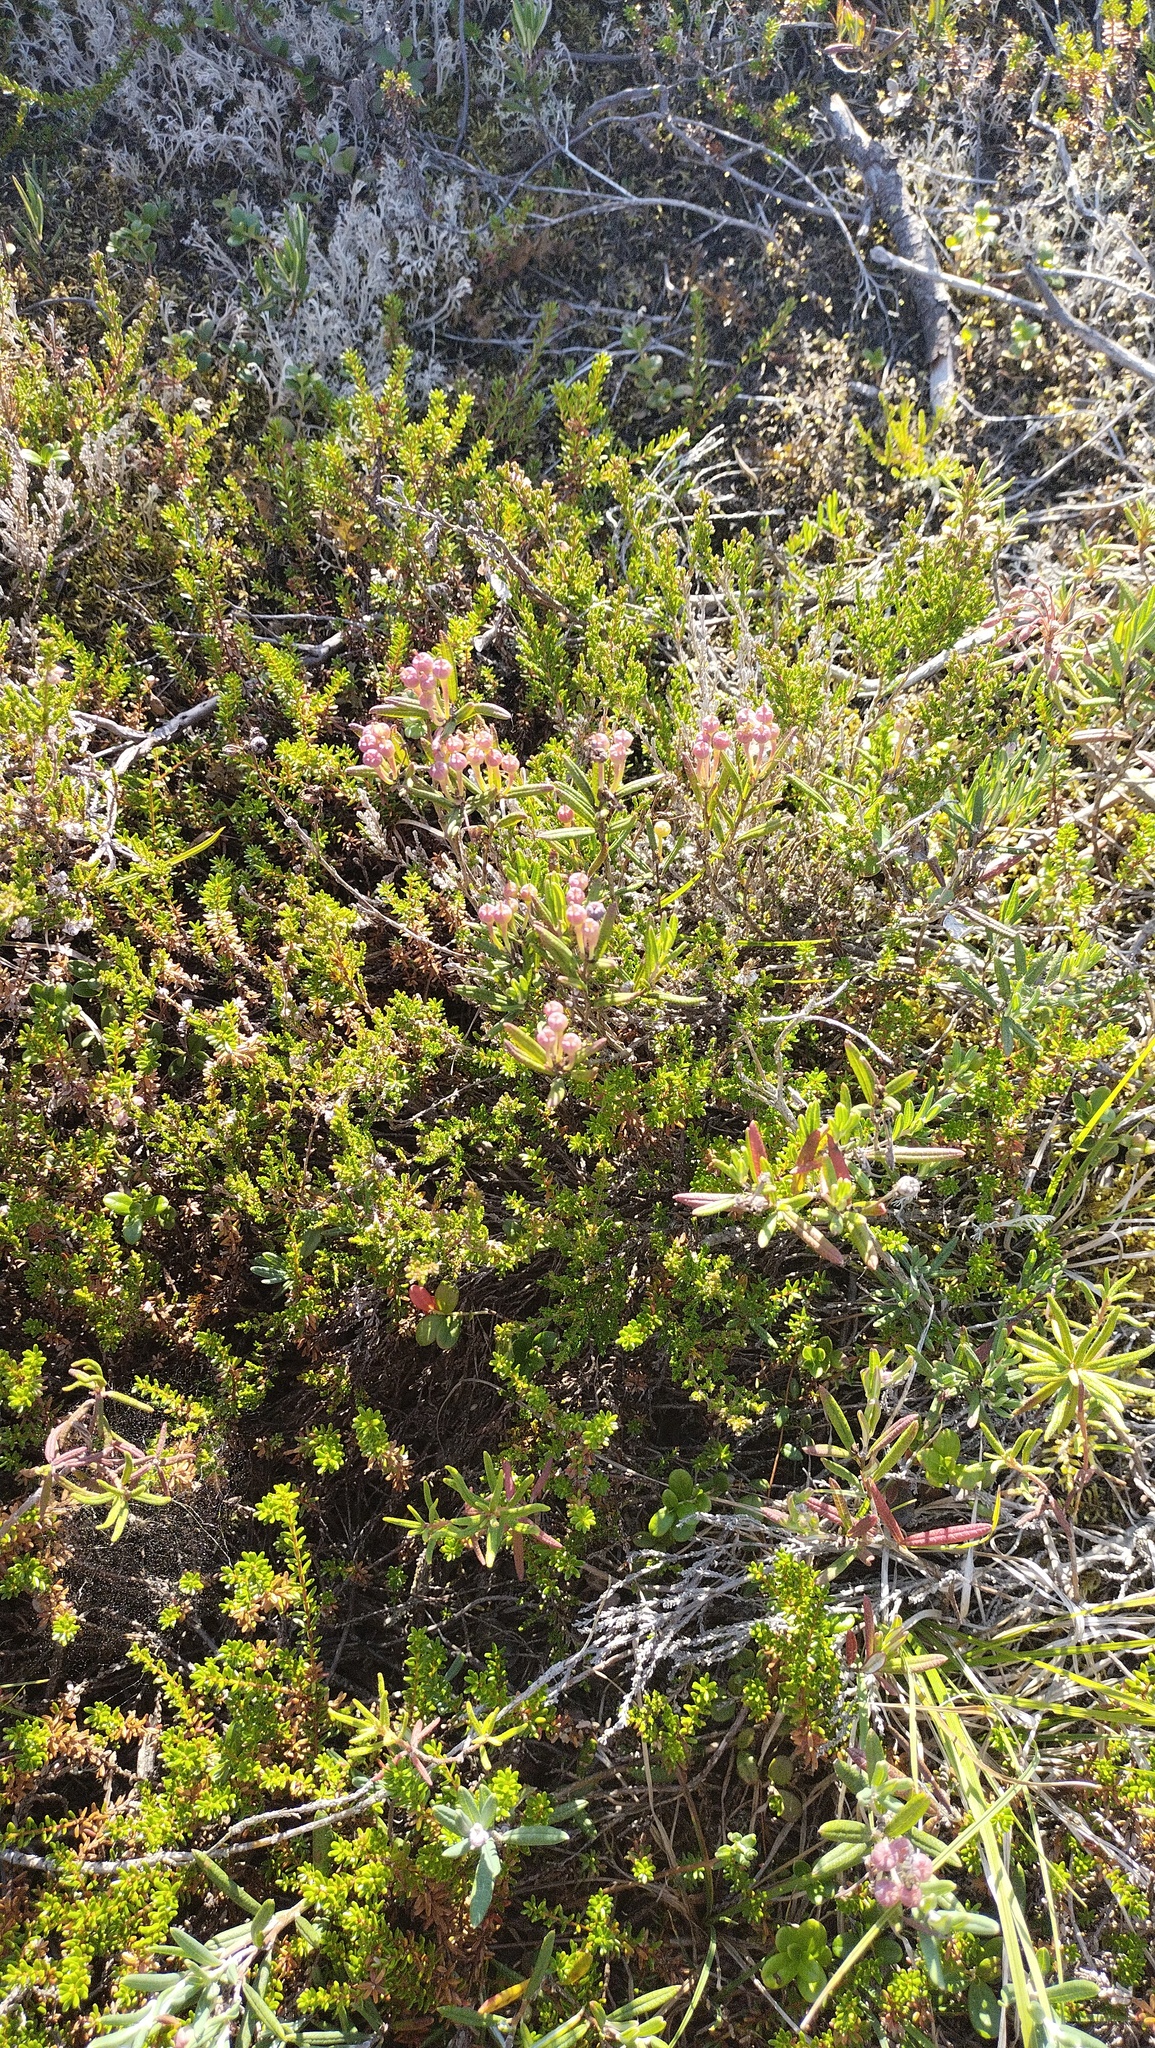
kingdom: Plantae
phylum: Tracheophyta
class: Magnoliopsida
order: Ericales
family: Ericaceae
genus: Andromeda
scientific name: Andromeda polifolia
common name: Bog-rosemary
